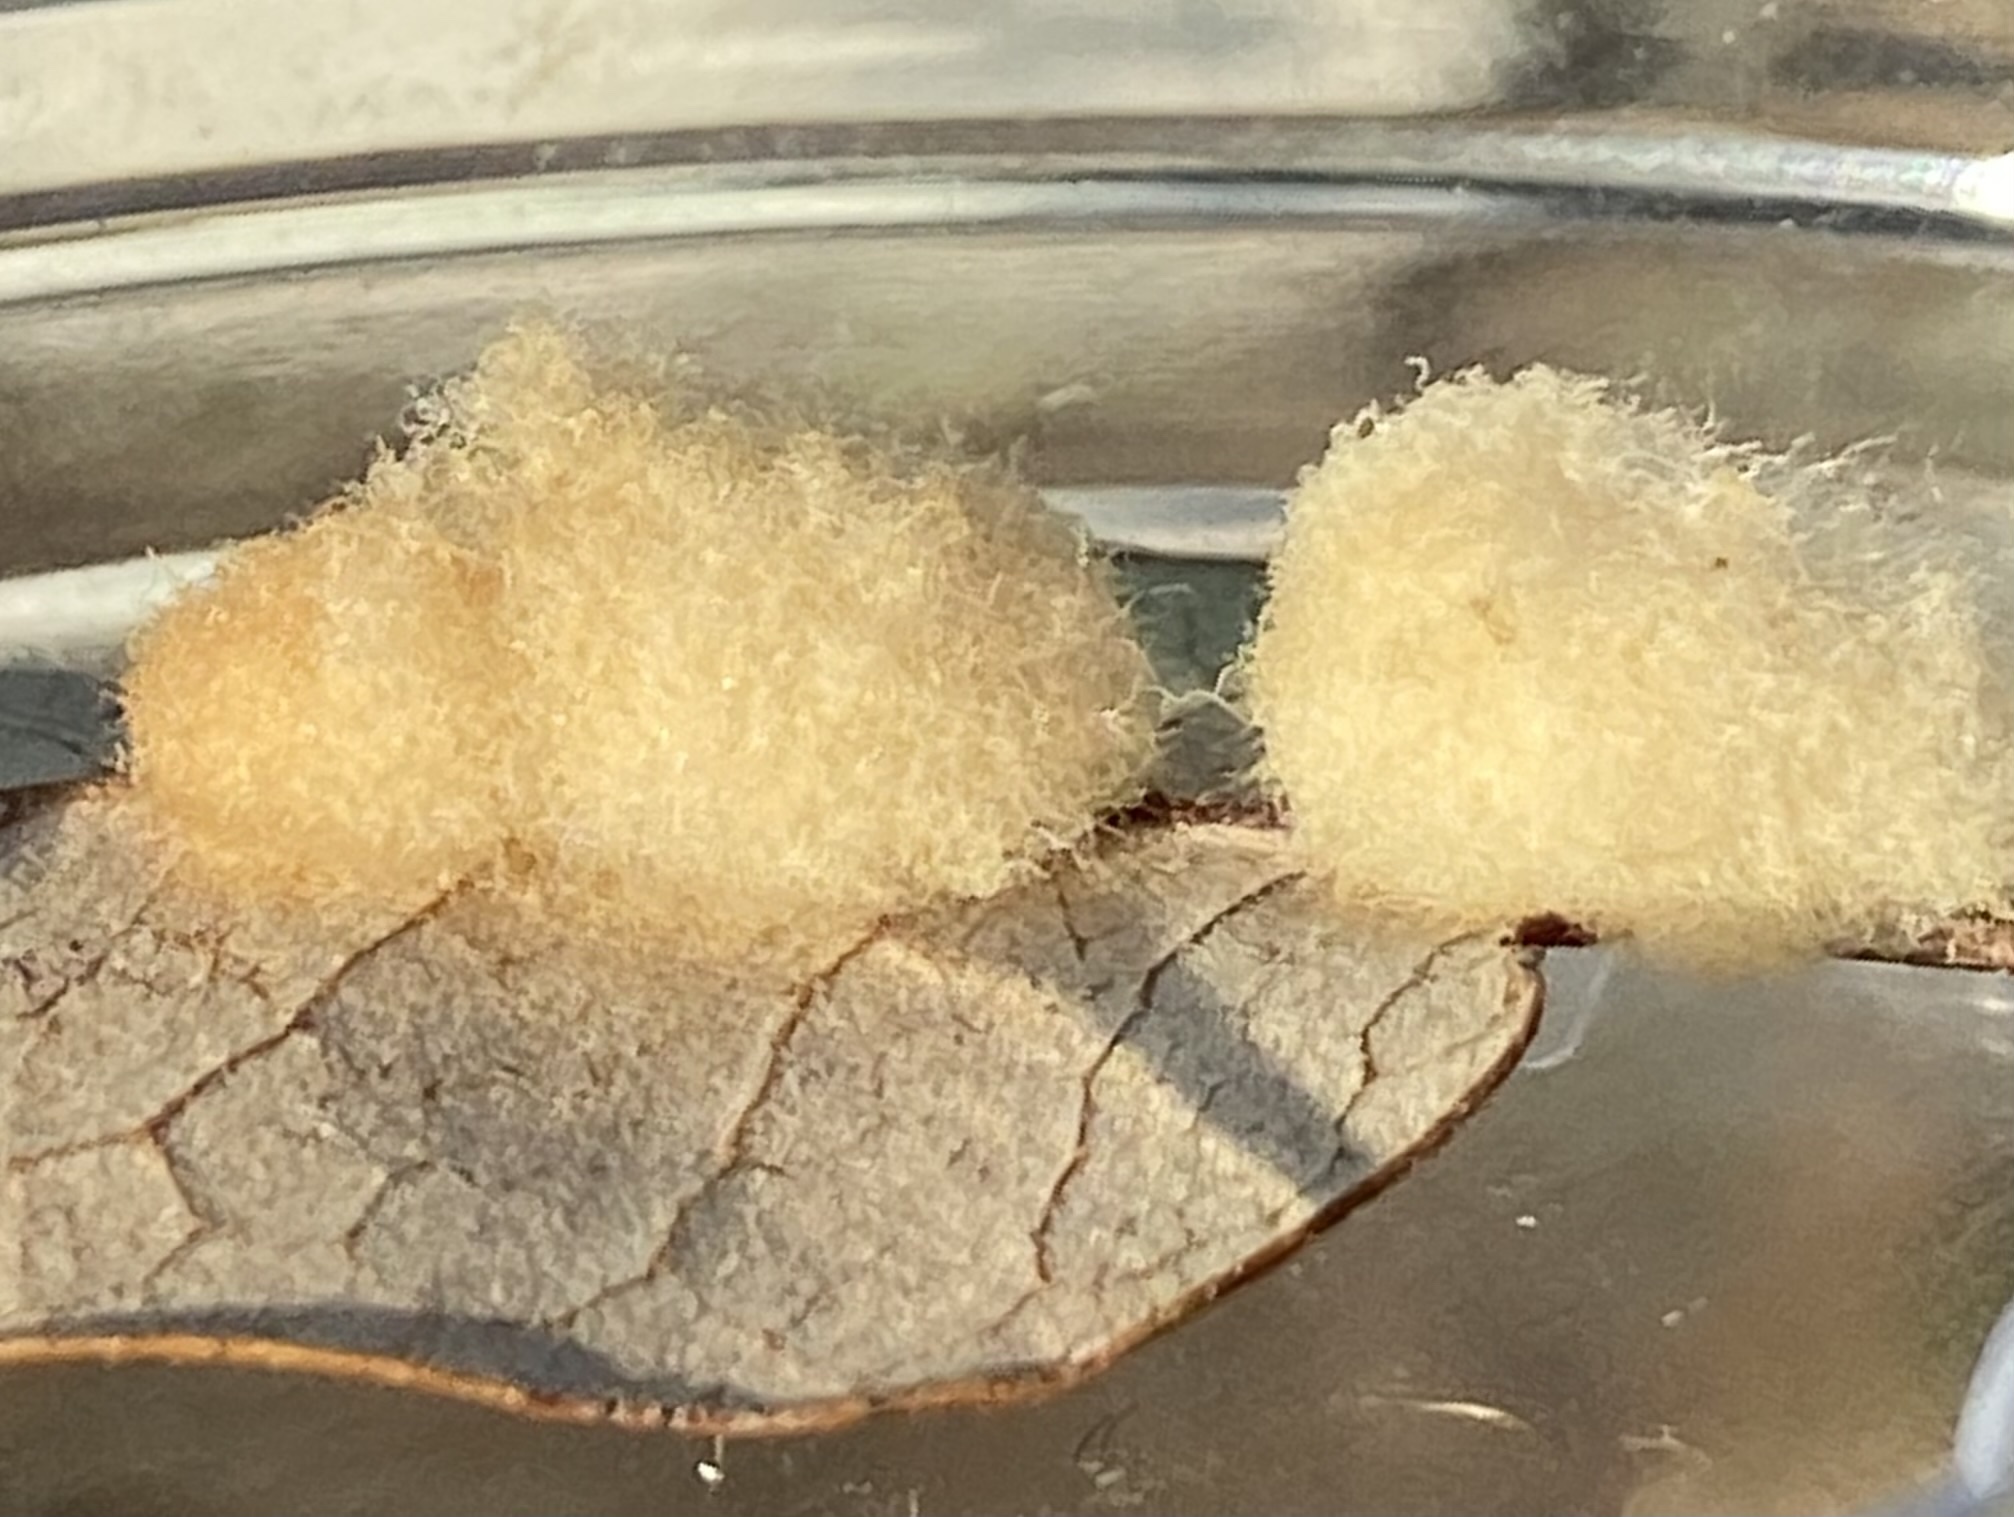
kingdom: Animalia
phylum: Arthropoda
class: Insecta
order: Hymenoptera
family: Cynipidae
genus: Andricus
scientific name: Andricus Druon quercuslanigerum
